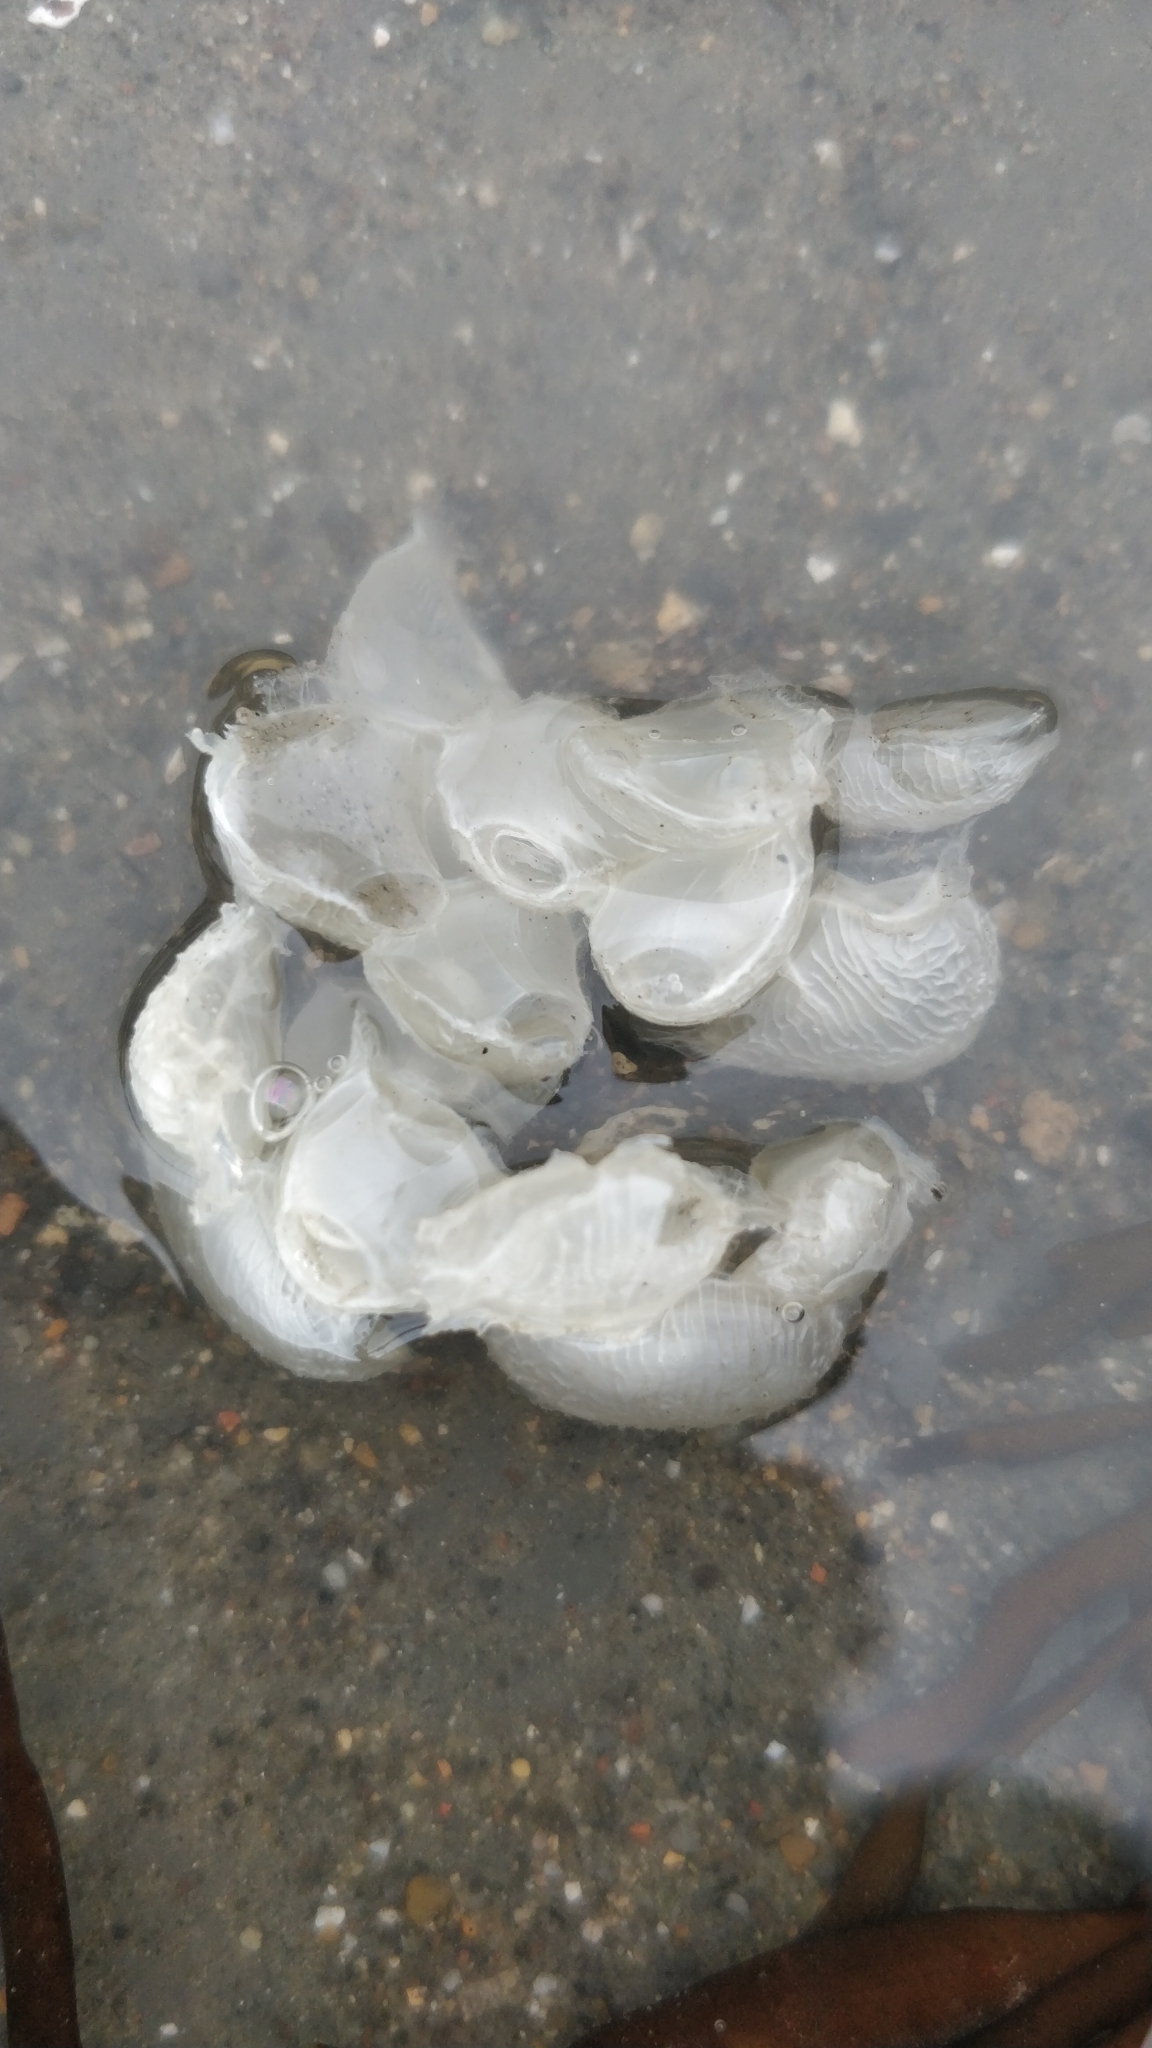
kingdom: Animalia
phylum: Mollusca
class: Gastropoda
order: Neogastropoda
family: Buccinidae
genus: Buccinum
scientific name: Buccinum undatum
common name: Common whelk
